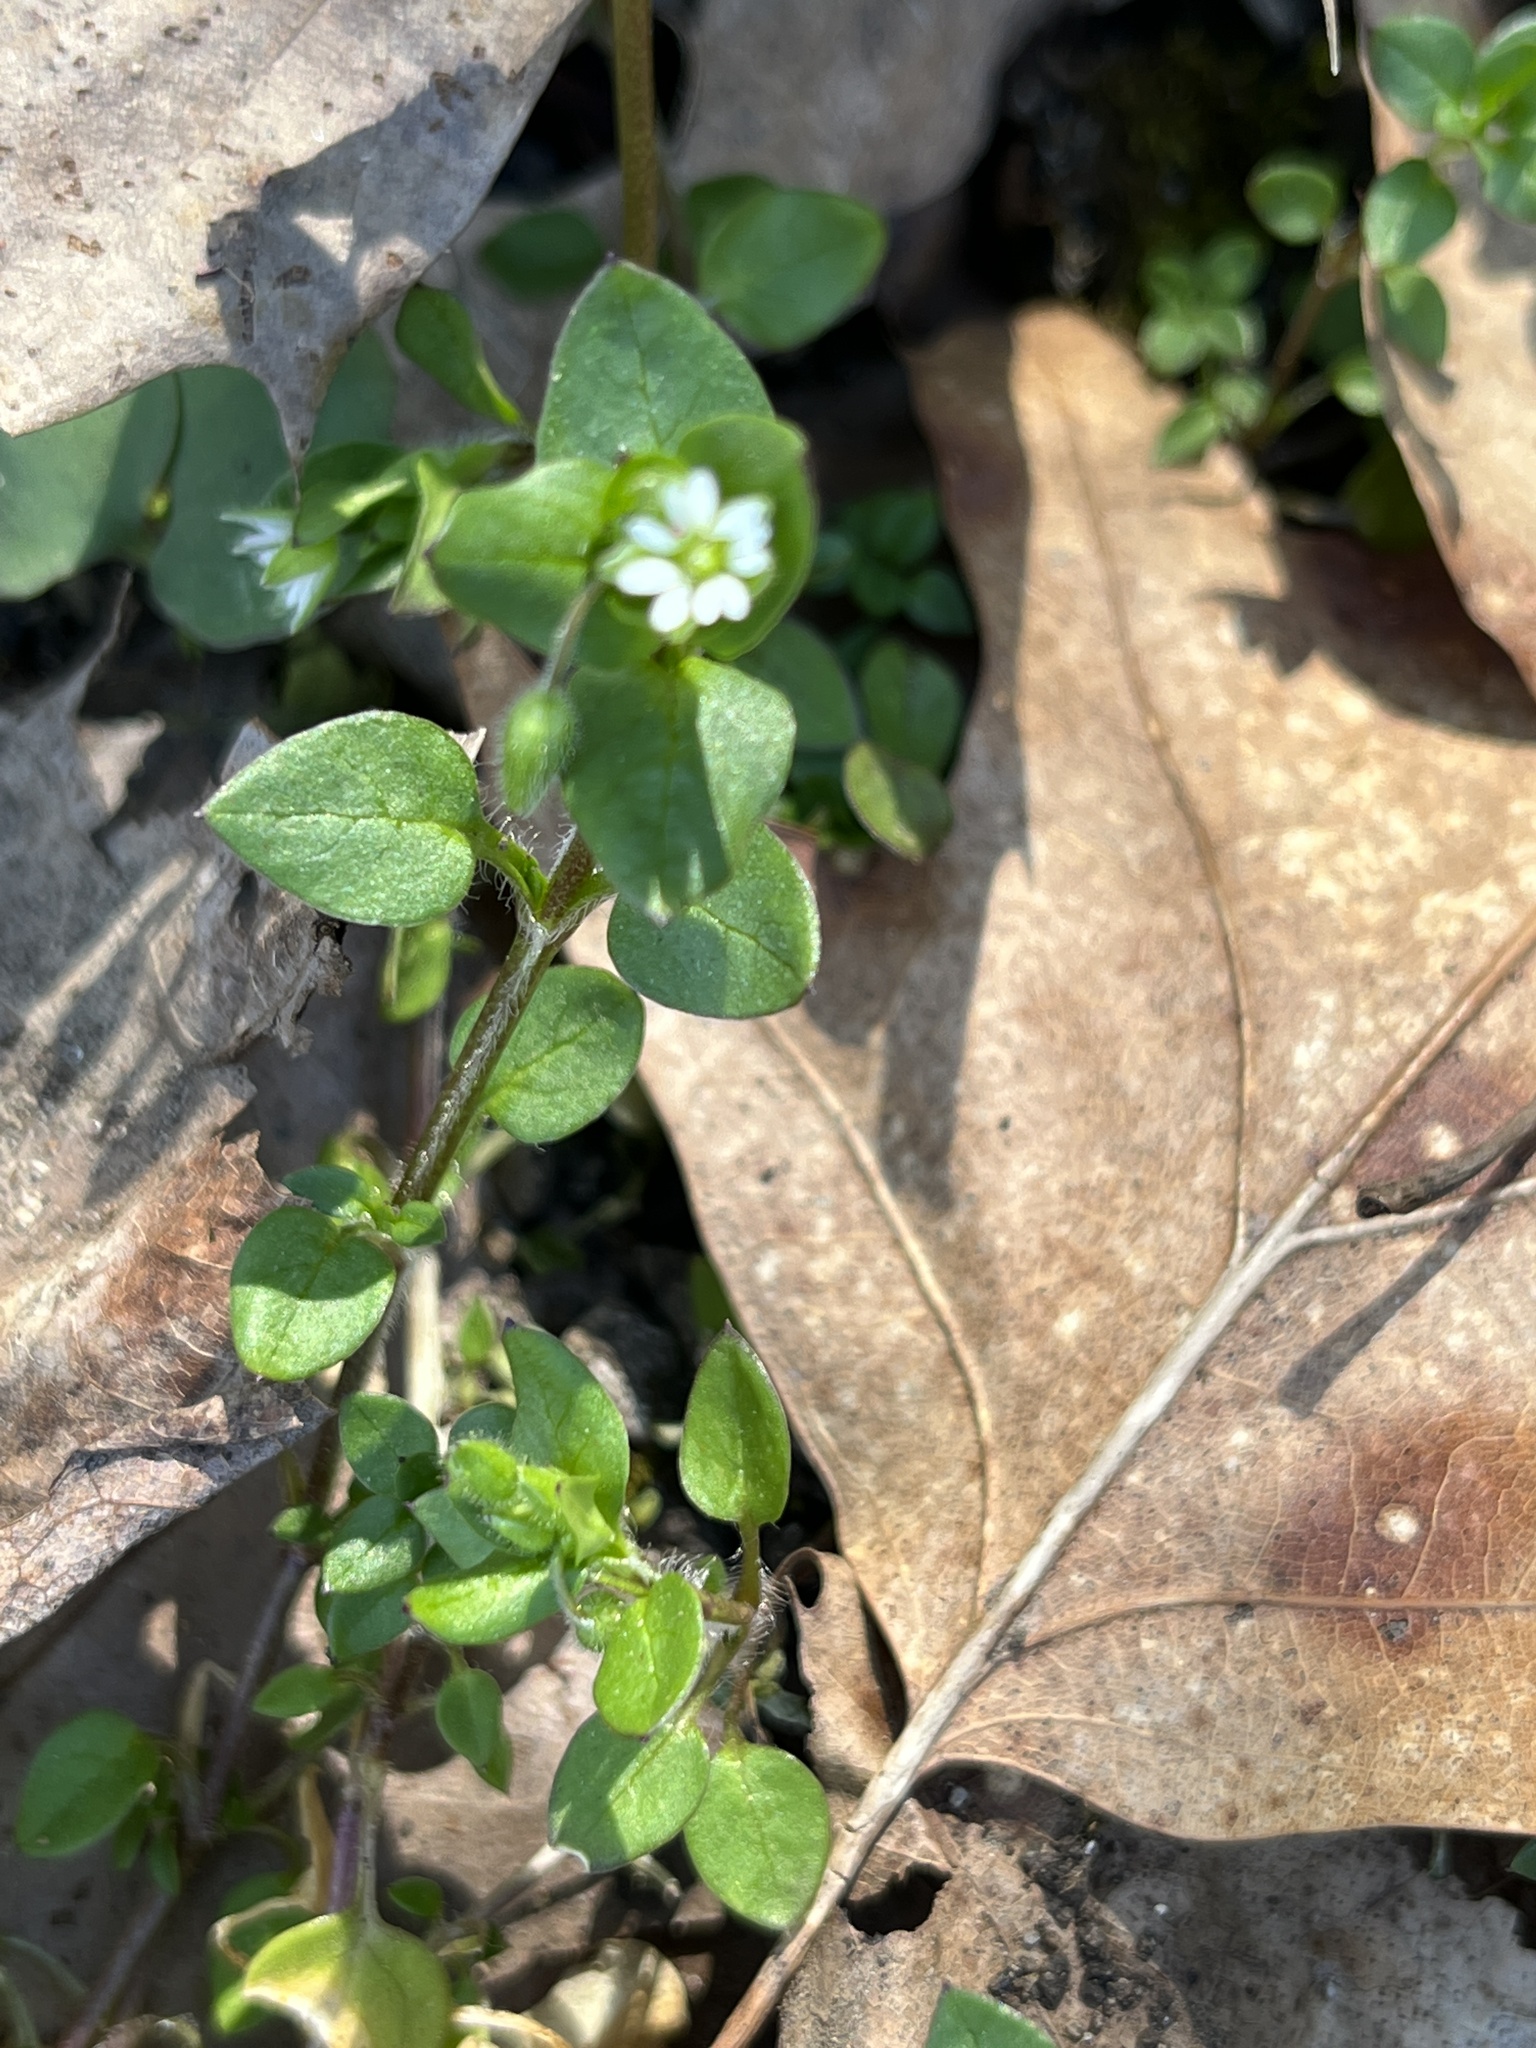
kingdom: Plantae
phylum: Tracheophyta
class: Magnoliopsida
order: Caryophyllales
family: Caryophyllaceae
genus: Stellaria
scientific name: Stellaria media
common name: Common chickweed
